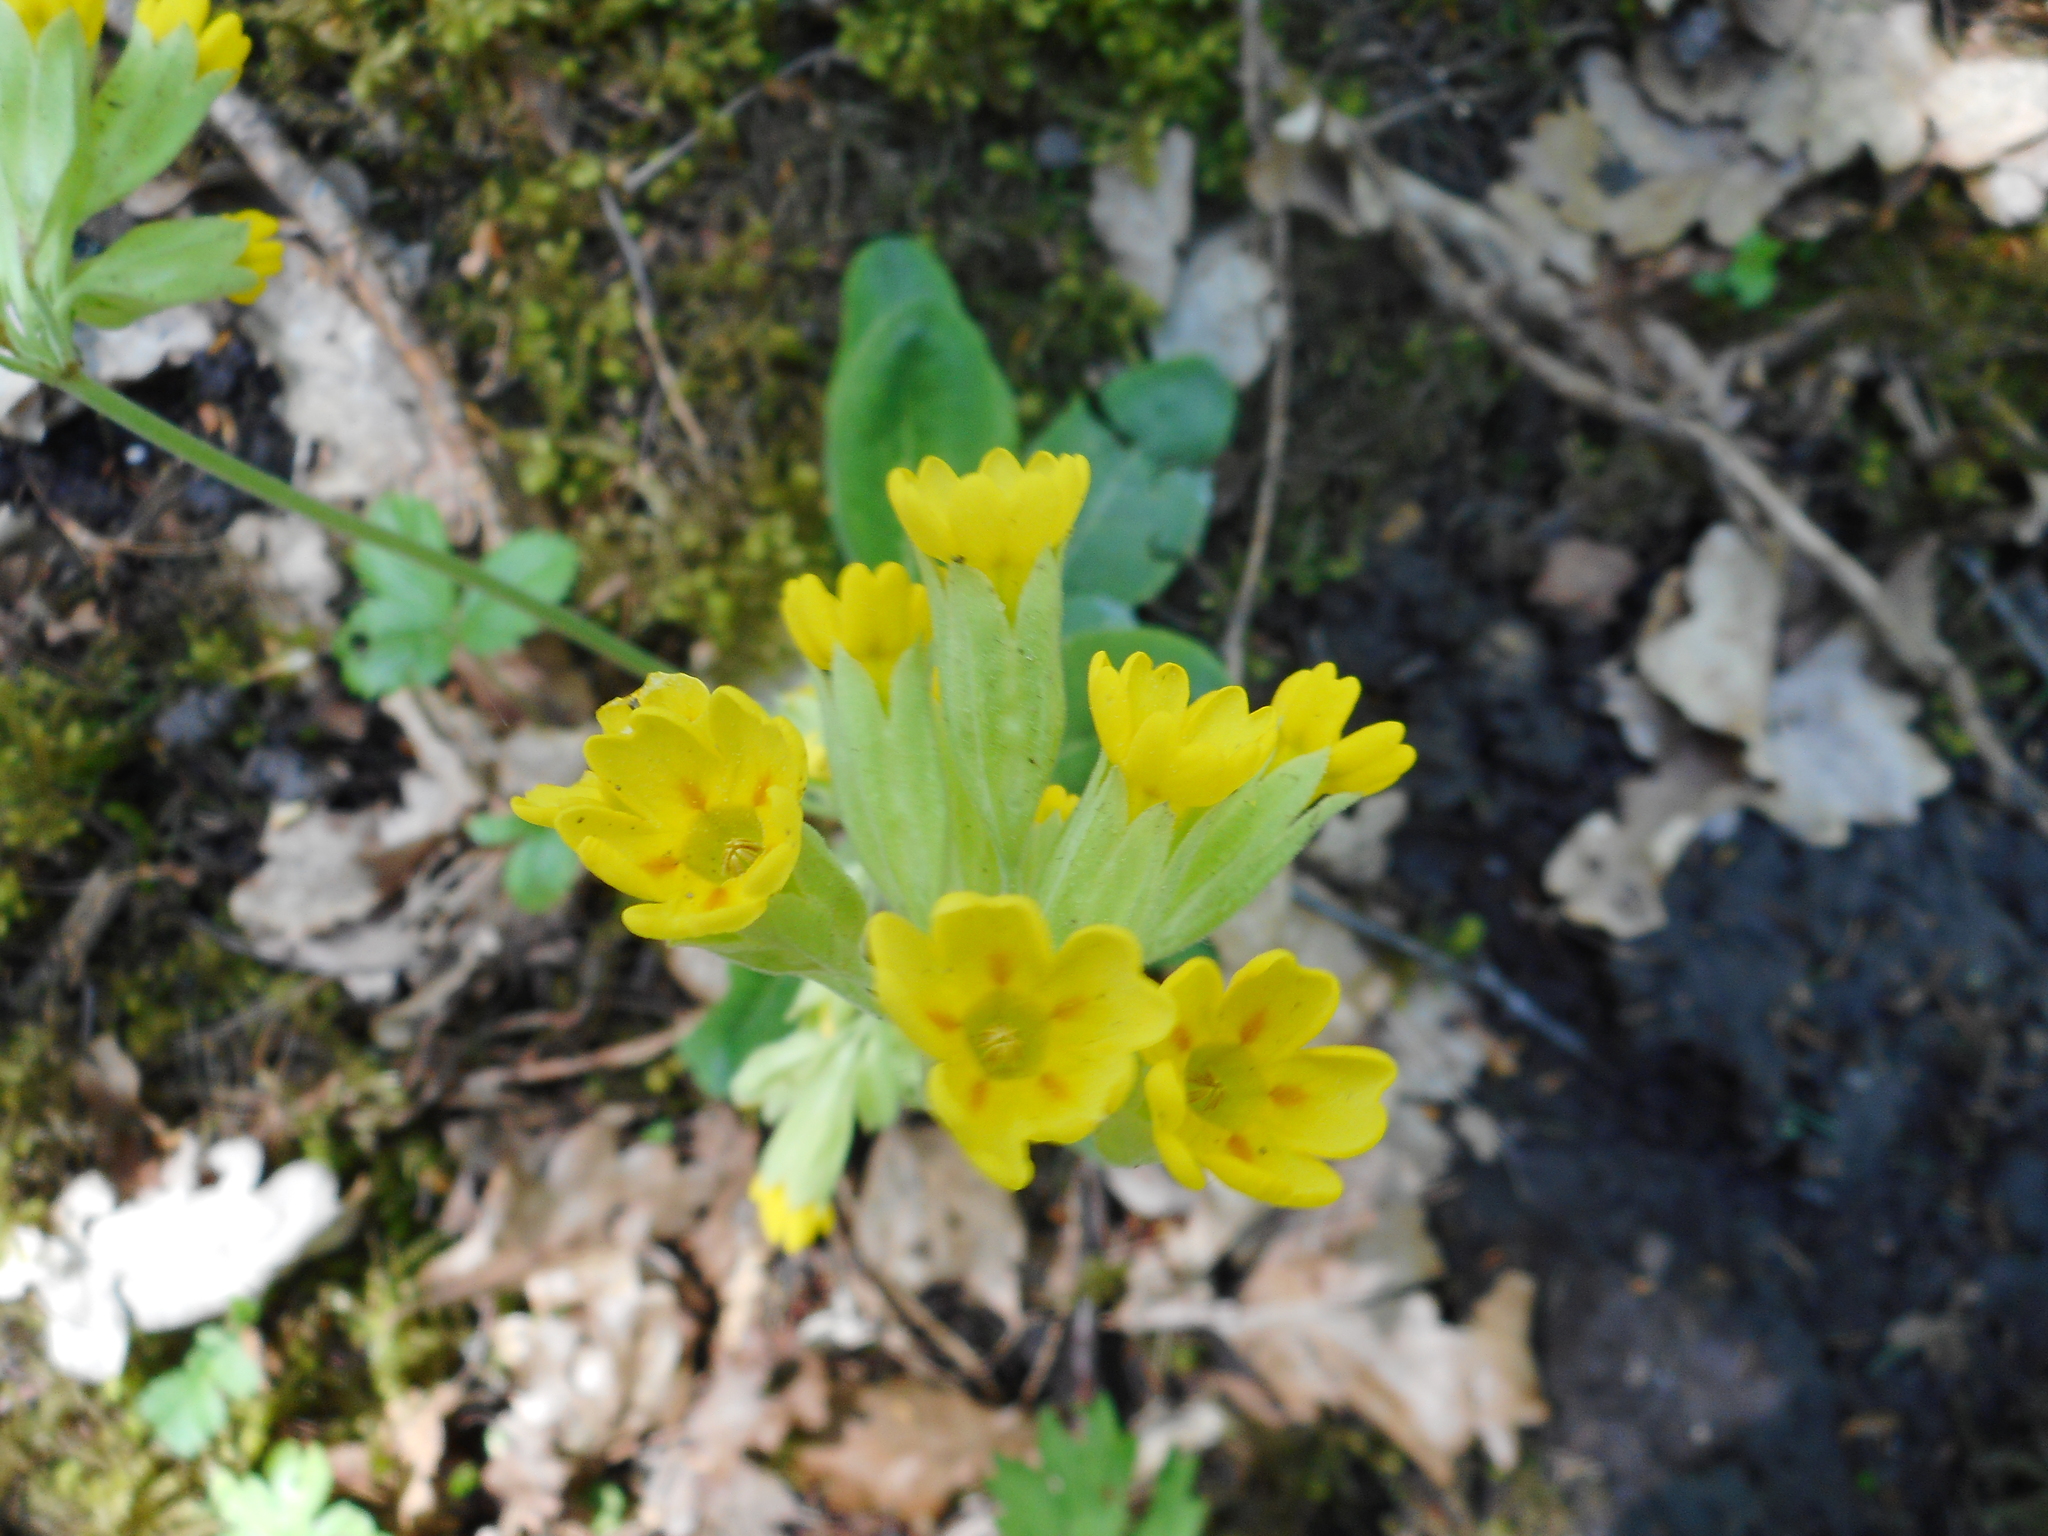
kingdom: Plantae
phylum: Tracheophyta
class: Magnoliopsida
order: Ericales
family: Primulaceae
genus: Primula
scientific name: Primula veris
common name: Cowslip
